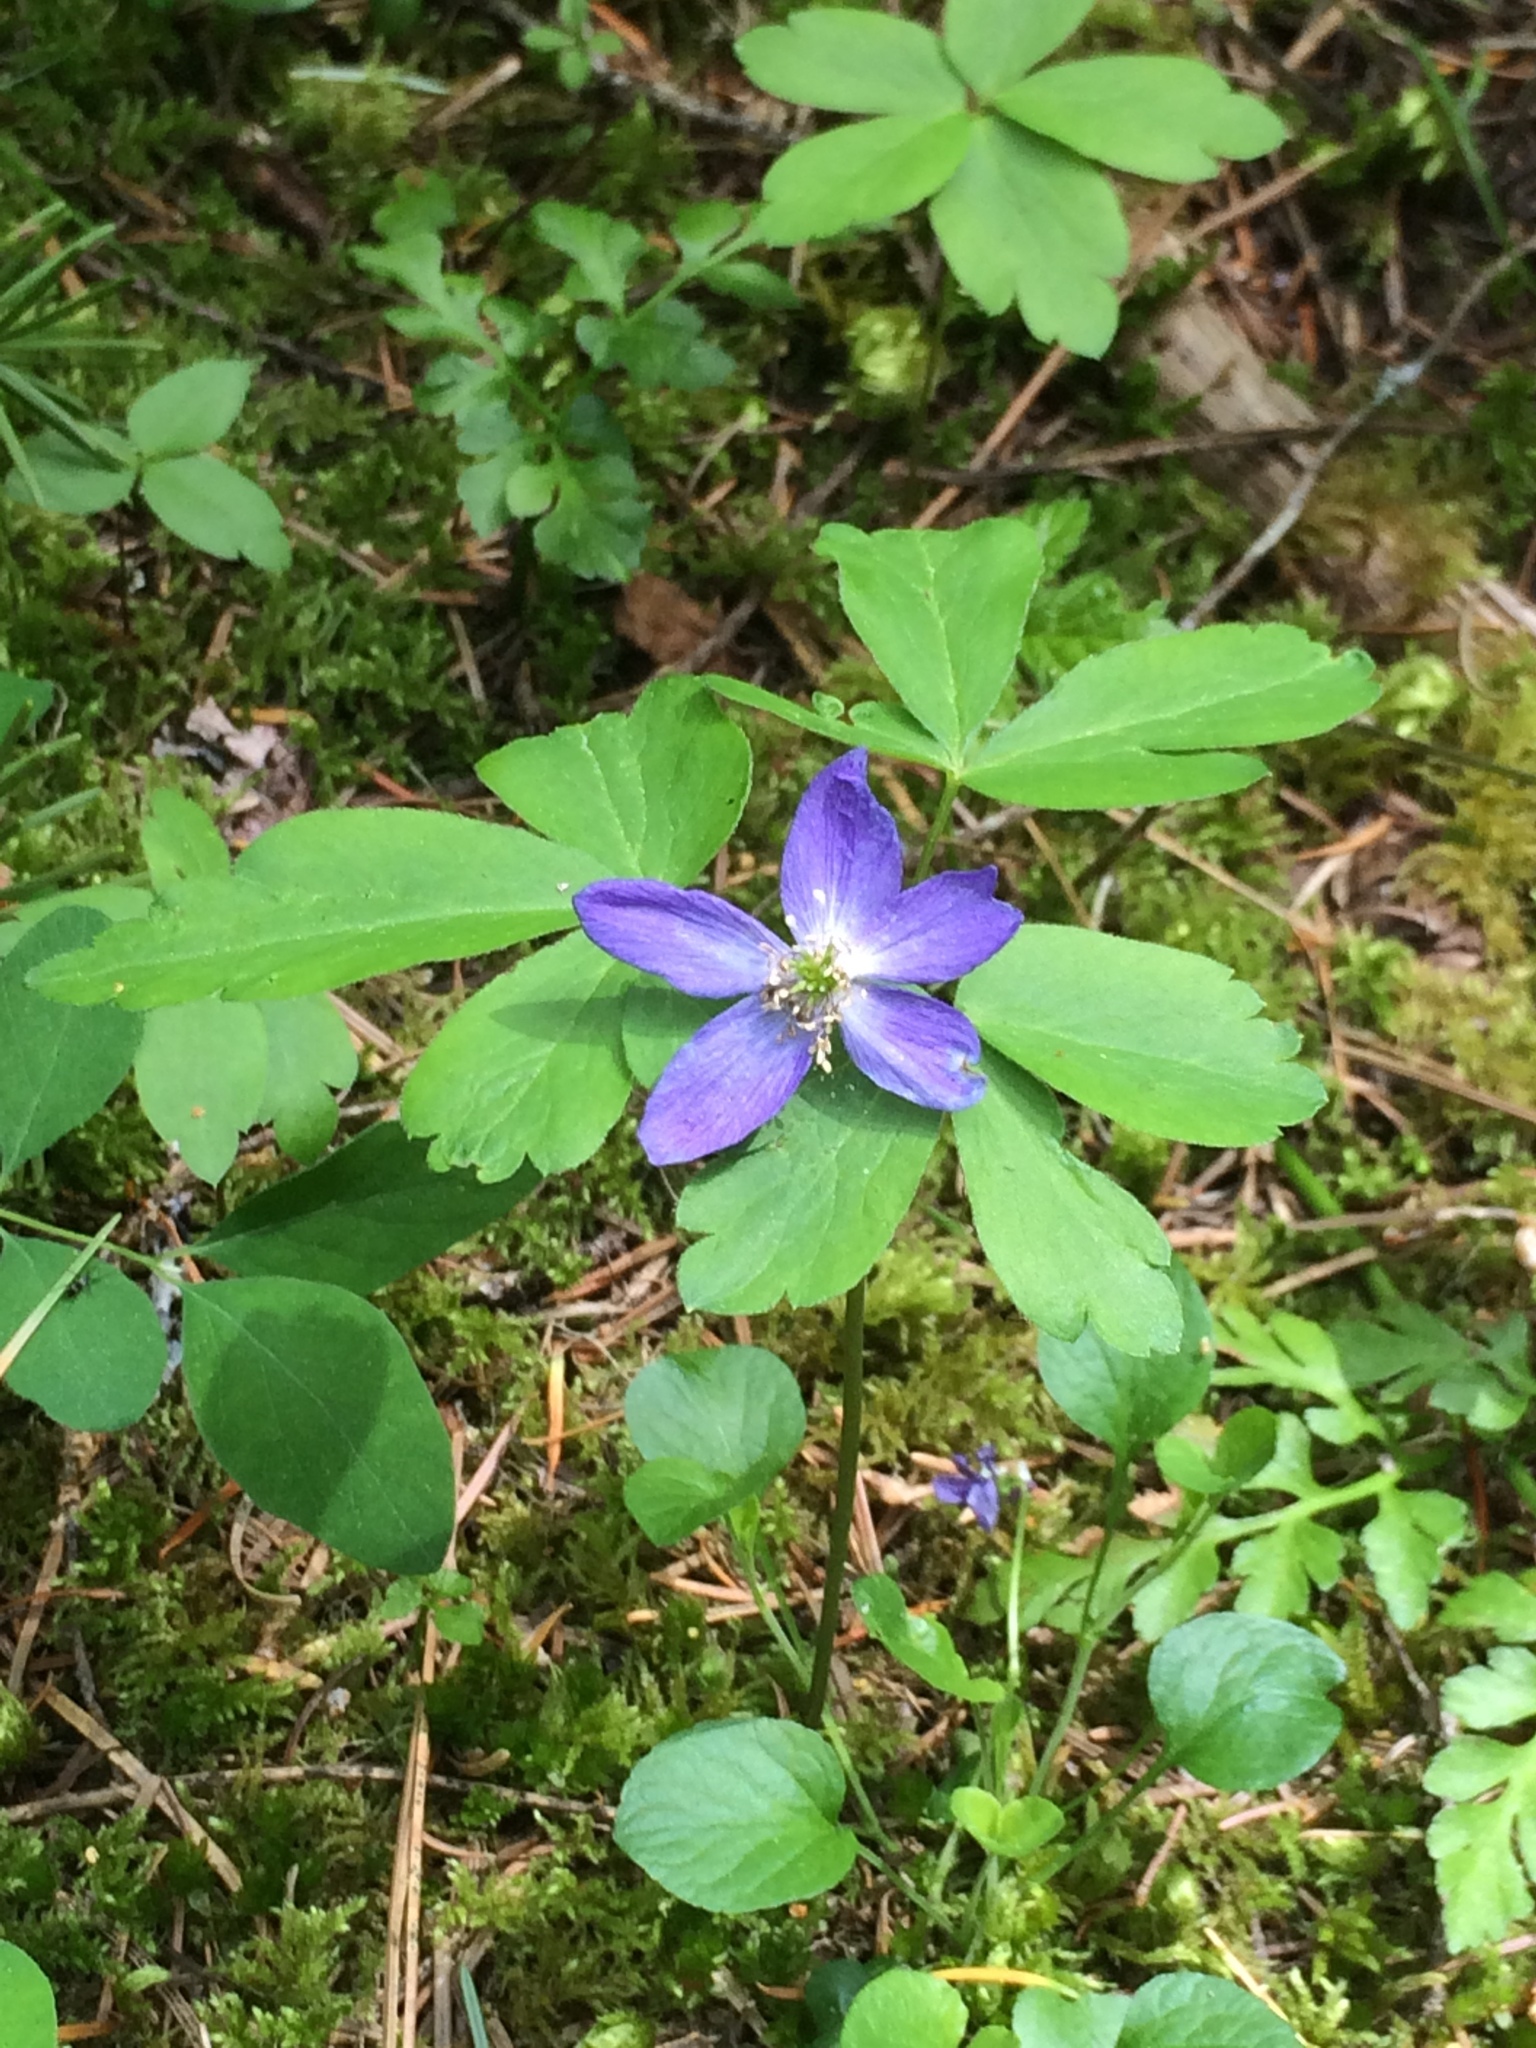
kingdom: Plantae
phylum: Tracheophyta
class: Magnoliopsida
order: Ranunculales
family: Ranunculaceae
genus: Anemone
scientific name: Anemone oregana
